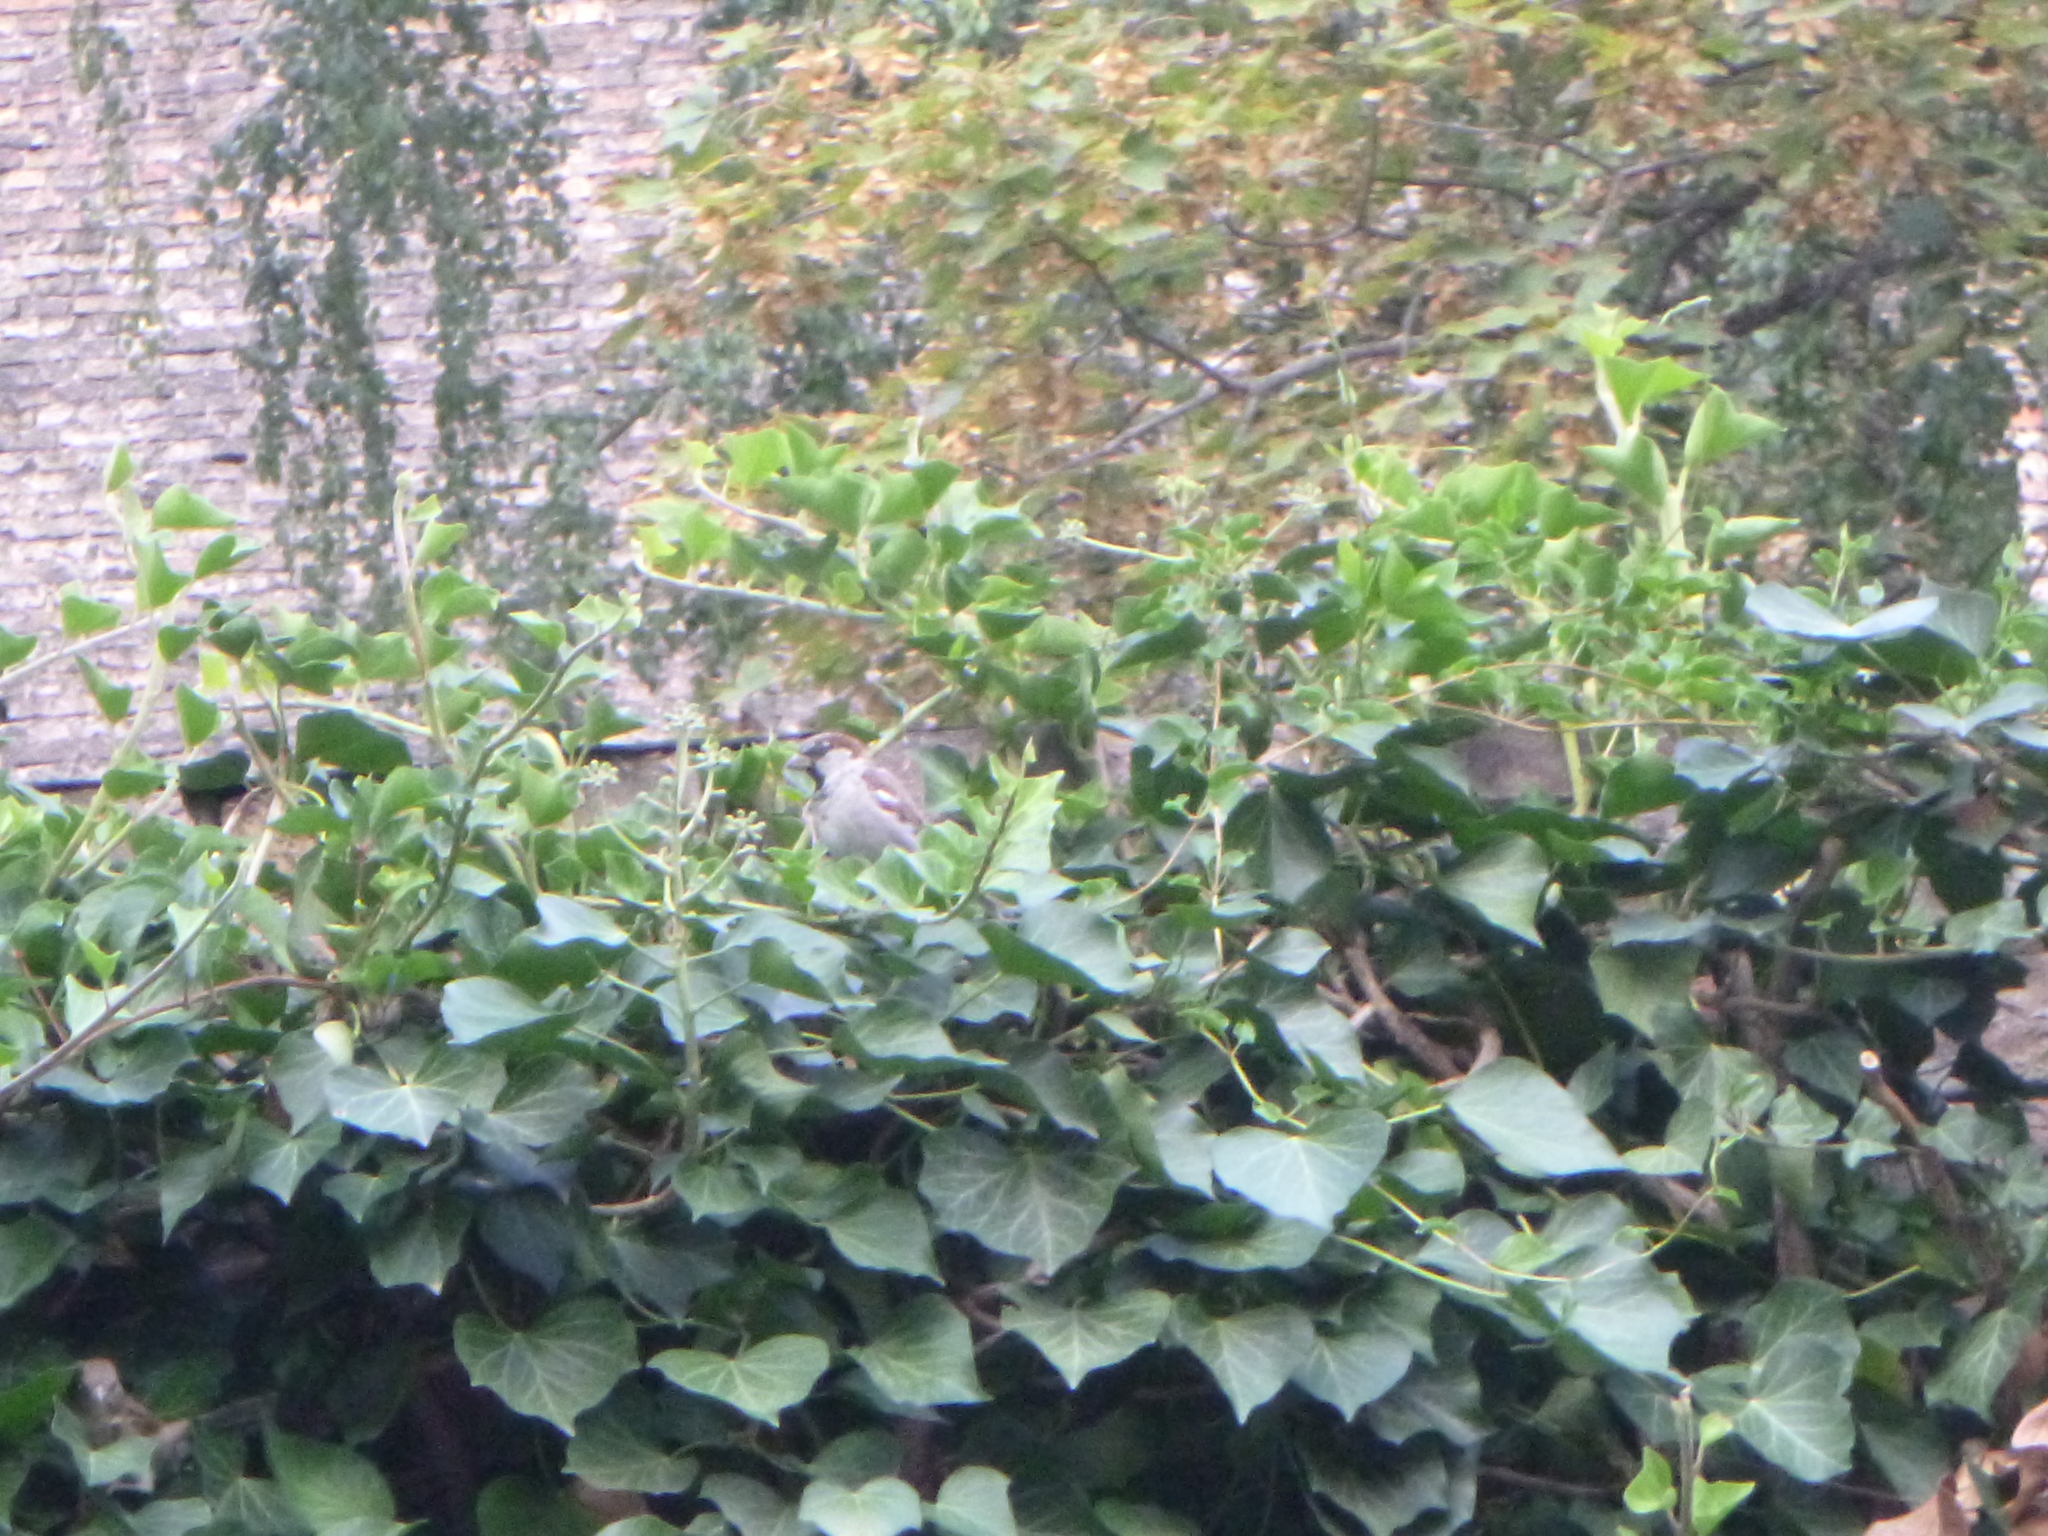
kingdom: Animalia
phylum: Chordata
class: Aves
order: Passeriformes
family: Passeridae
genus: Passer
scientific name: Passer domesticus
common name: House sparrow
